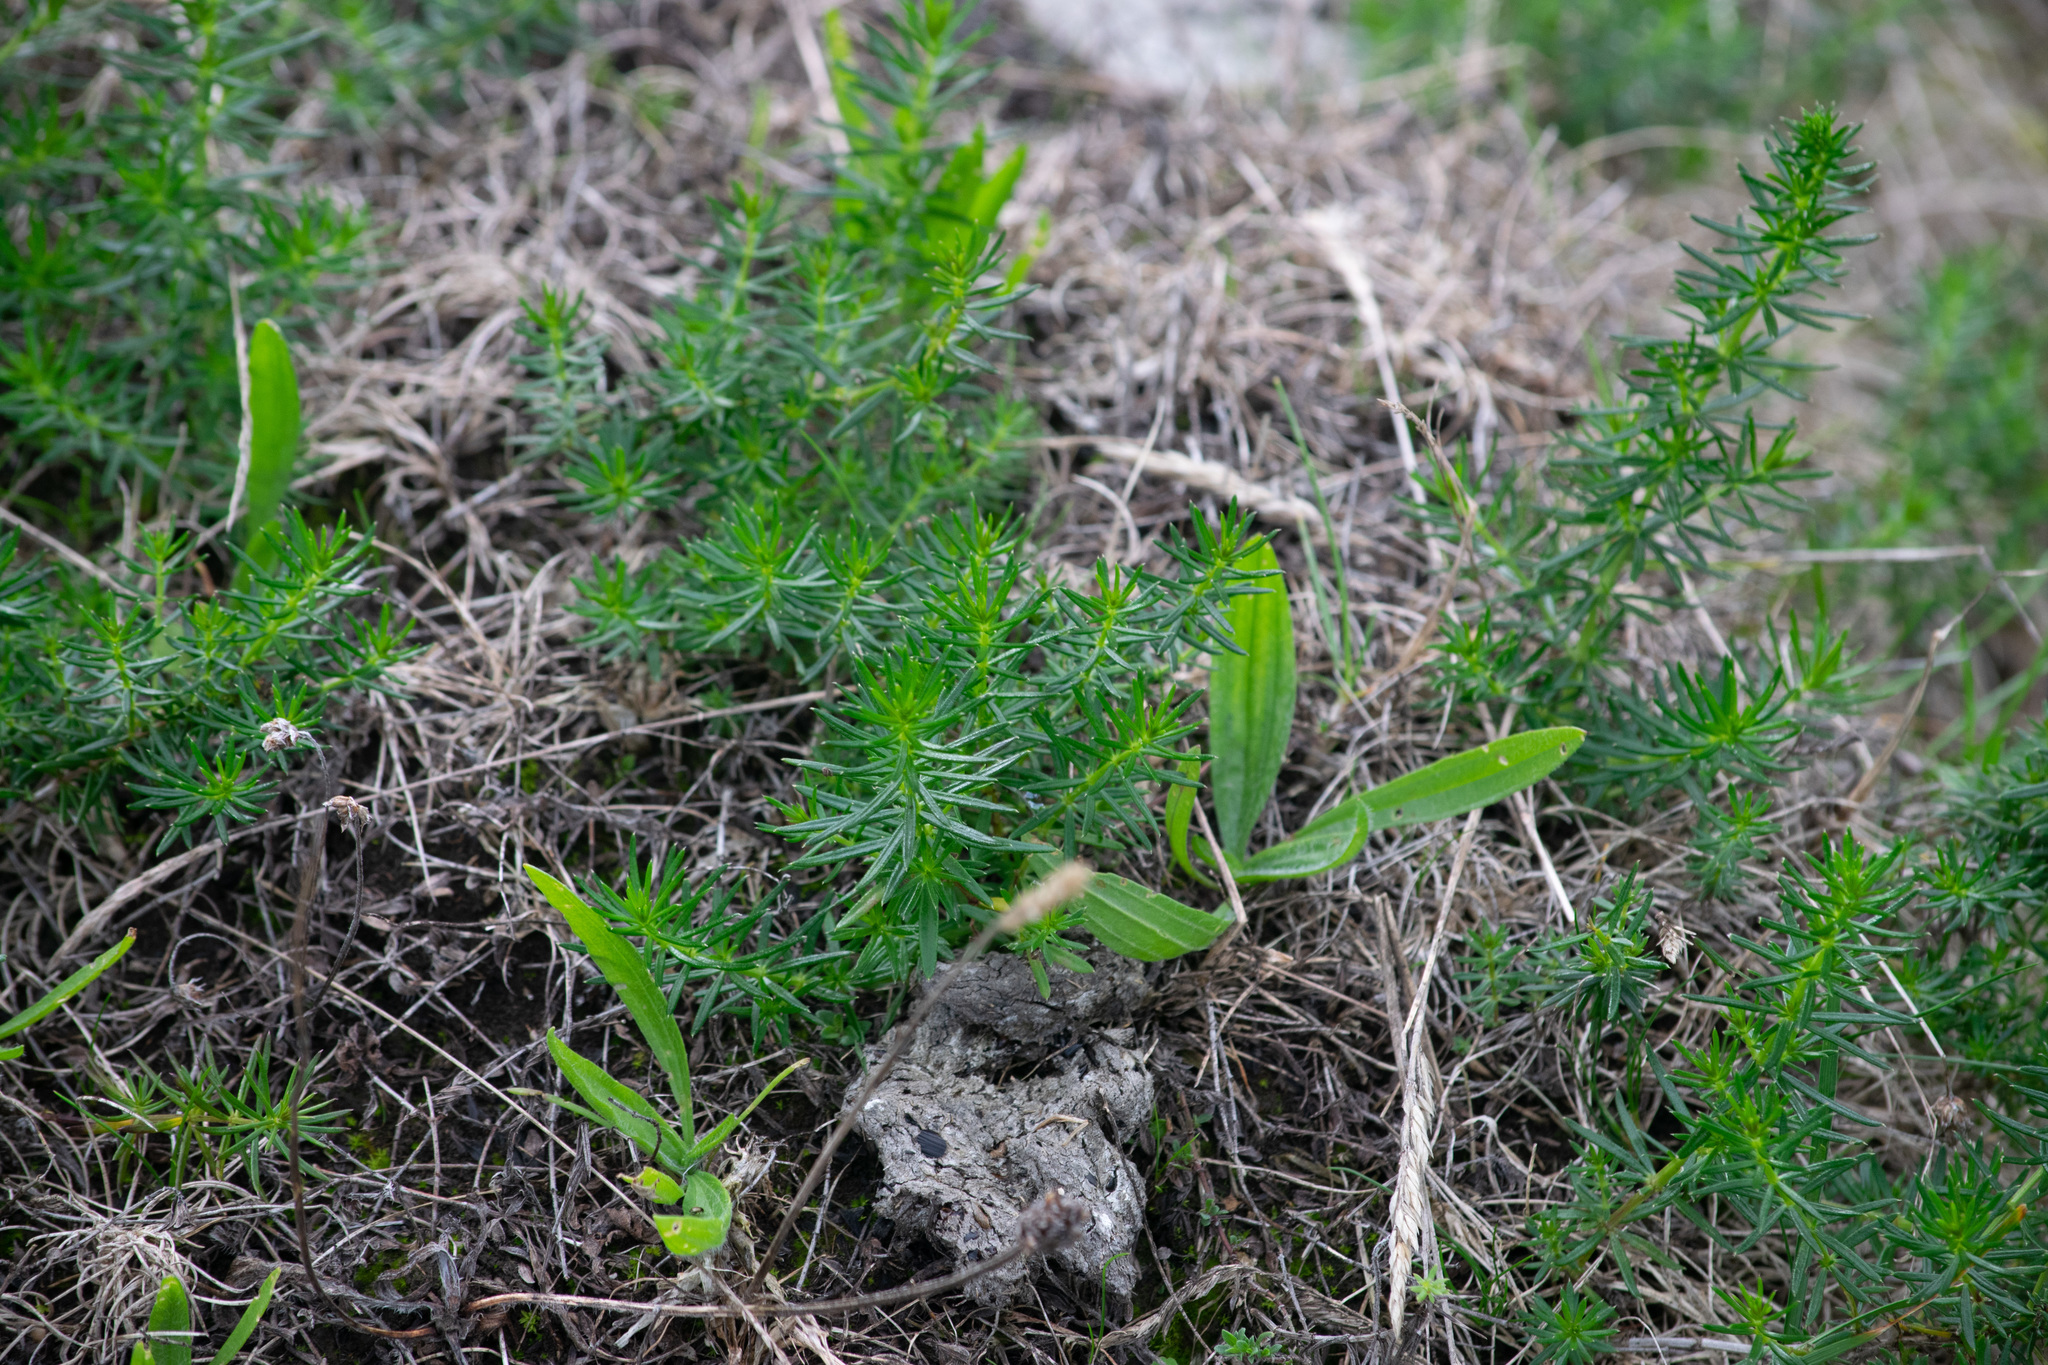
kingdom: Plantae
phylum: Tracheophyta
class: Magnoliopsida
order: Gentianales
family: Rubiaceae
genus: Galium
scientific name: Galium verum
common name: Lady's bedstraw
